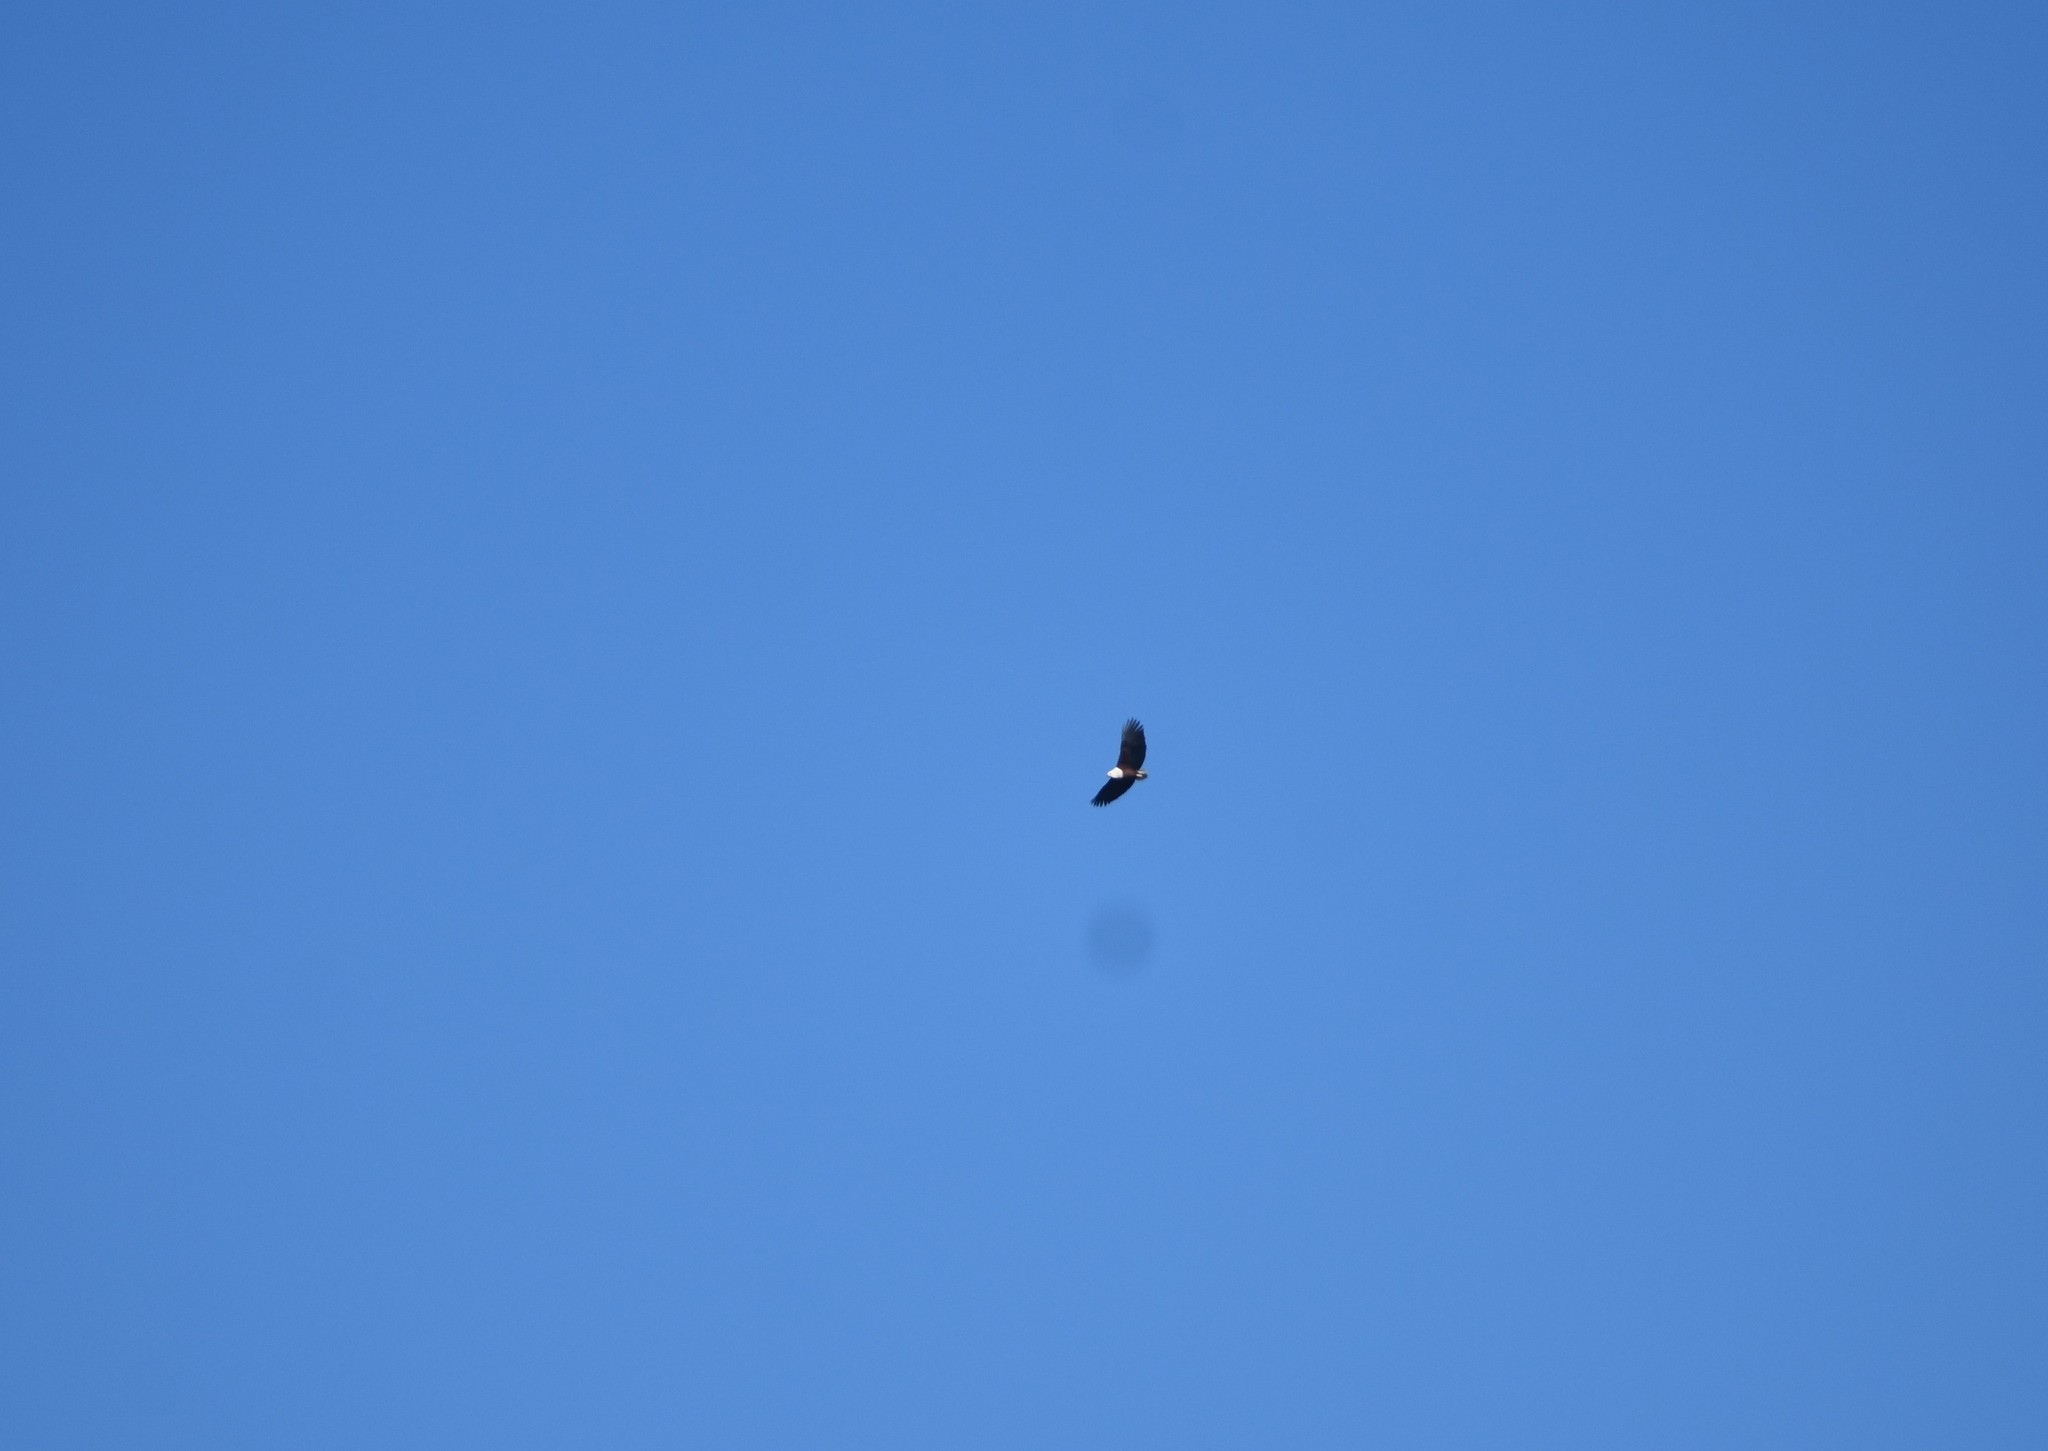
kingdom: Animalia
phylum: Chordata
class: Aves
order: Accipitriformes
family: Accipitridae
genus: Haliaeetus
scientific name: Haliaeetus vocifer
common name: African fish eagle
